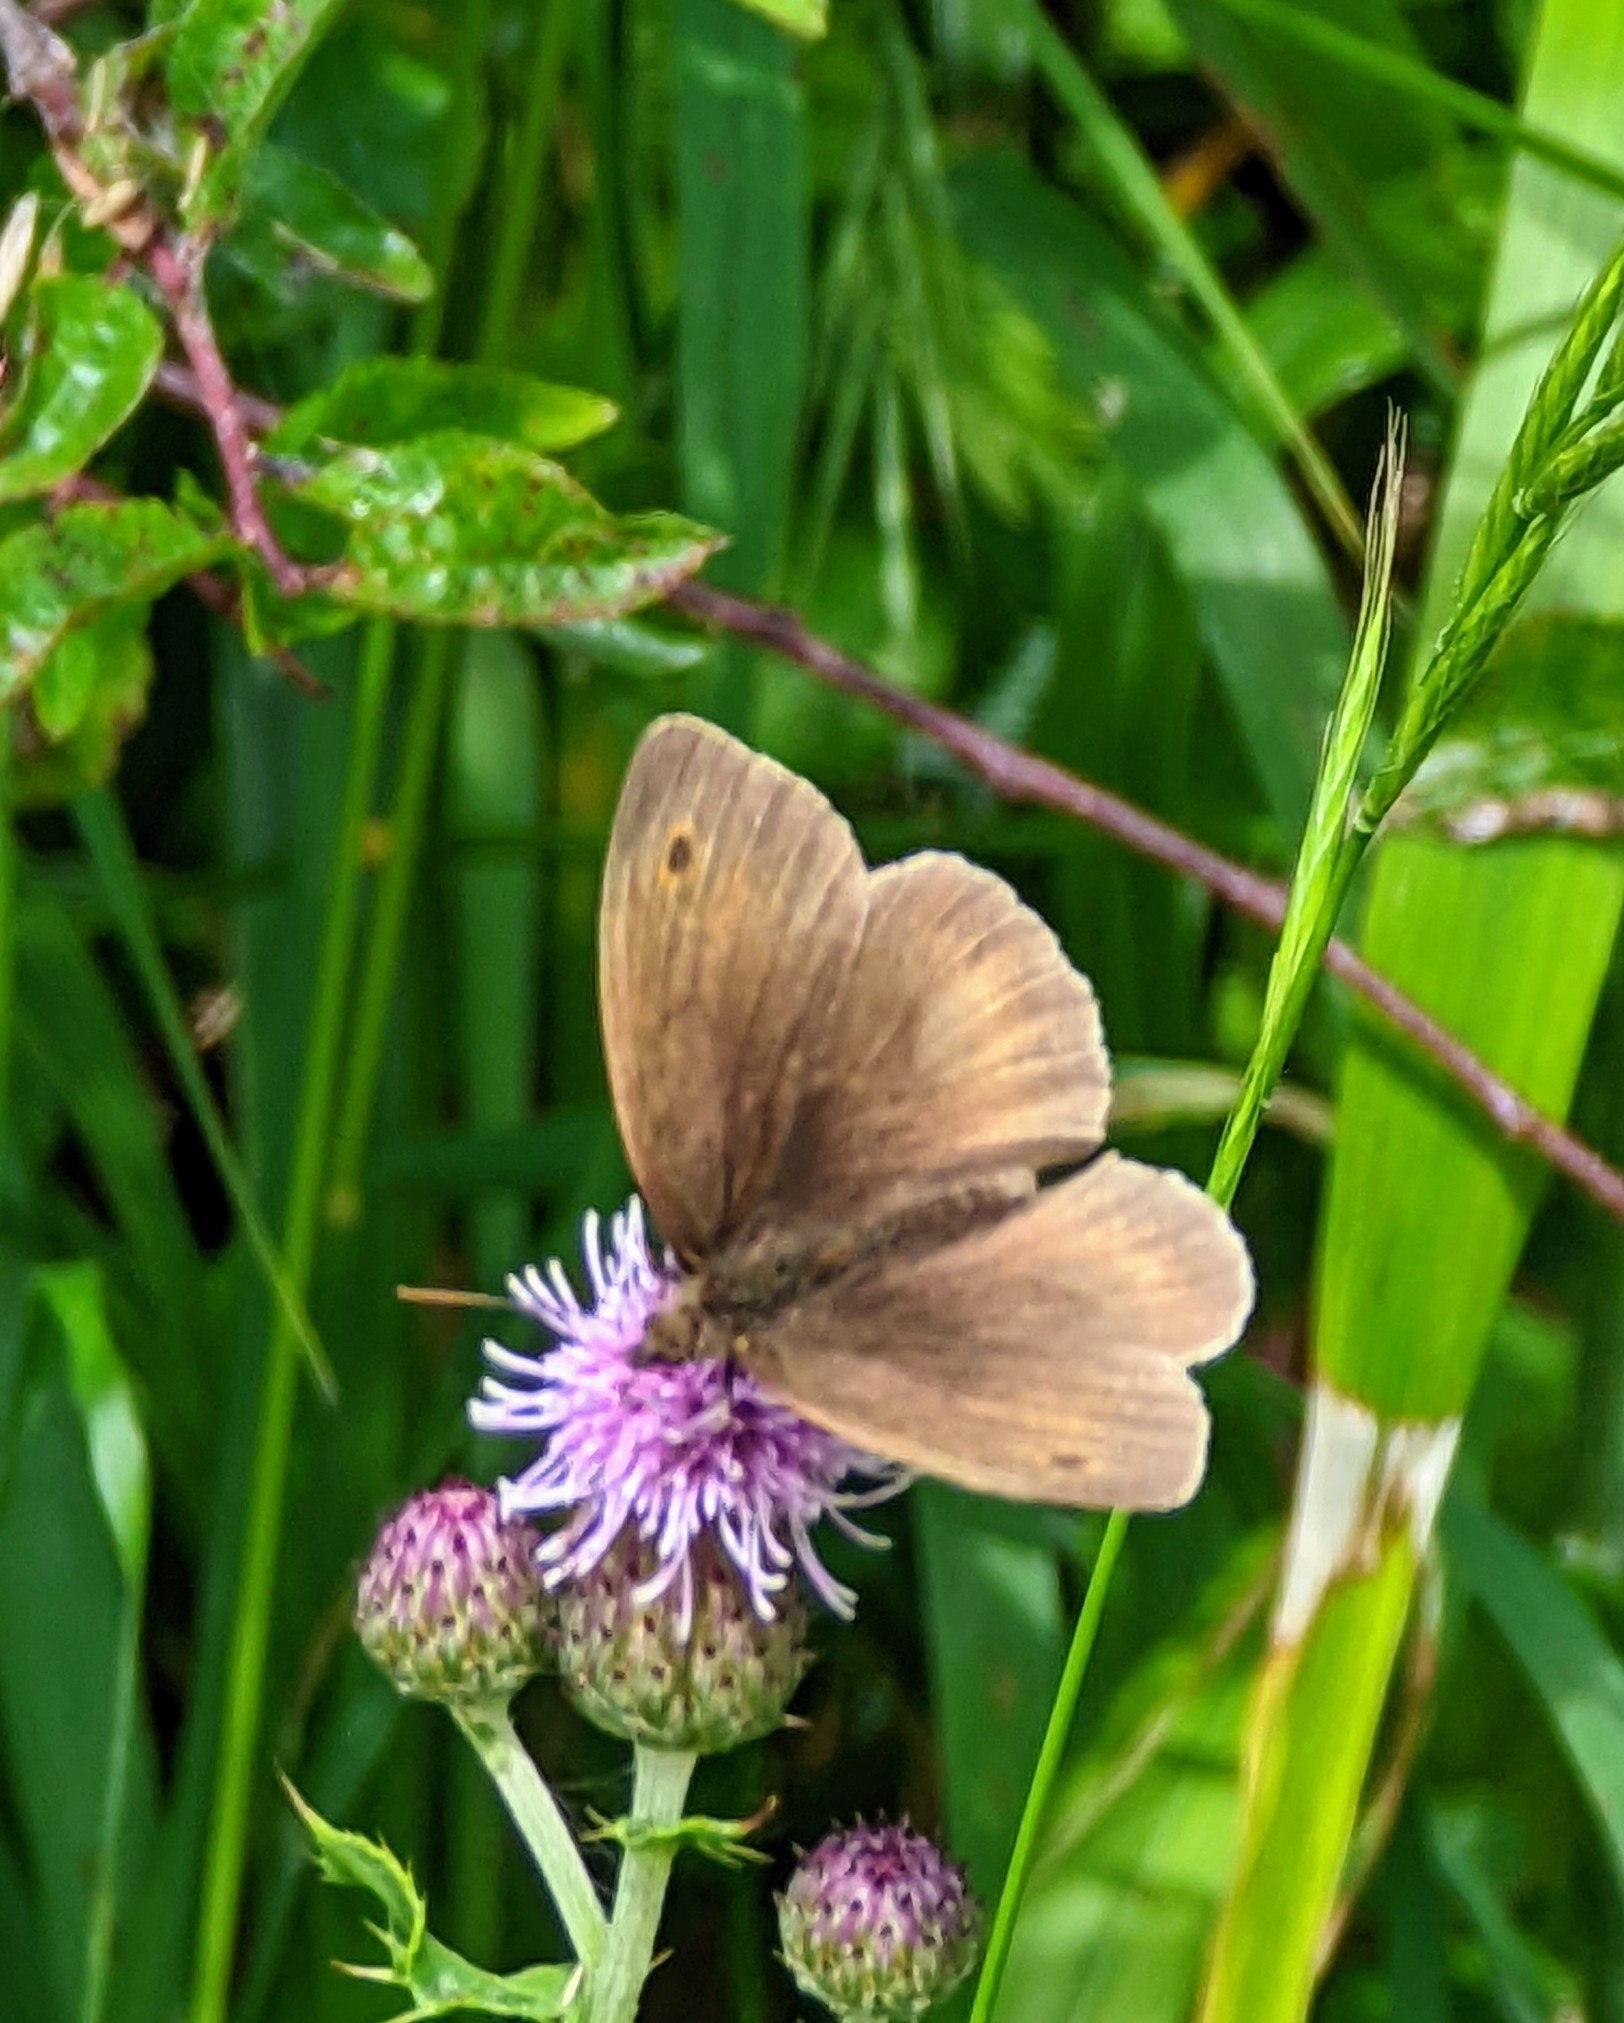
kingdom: Animalia
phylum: Arthropoda
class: Insecta
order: Lepidoptera
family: Nymphalidae
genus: Maniola
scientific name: Maniola jurtina
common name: Meadow brown
